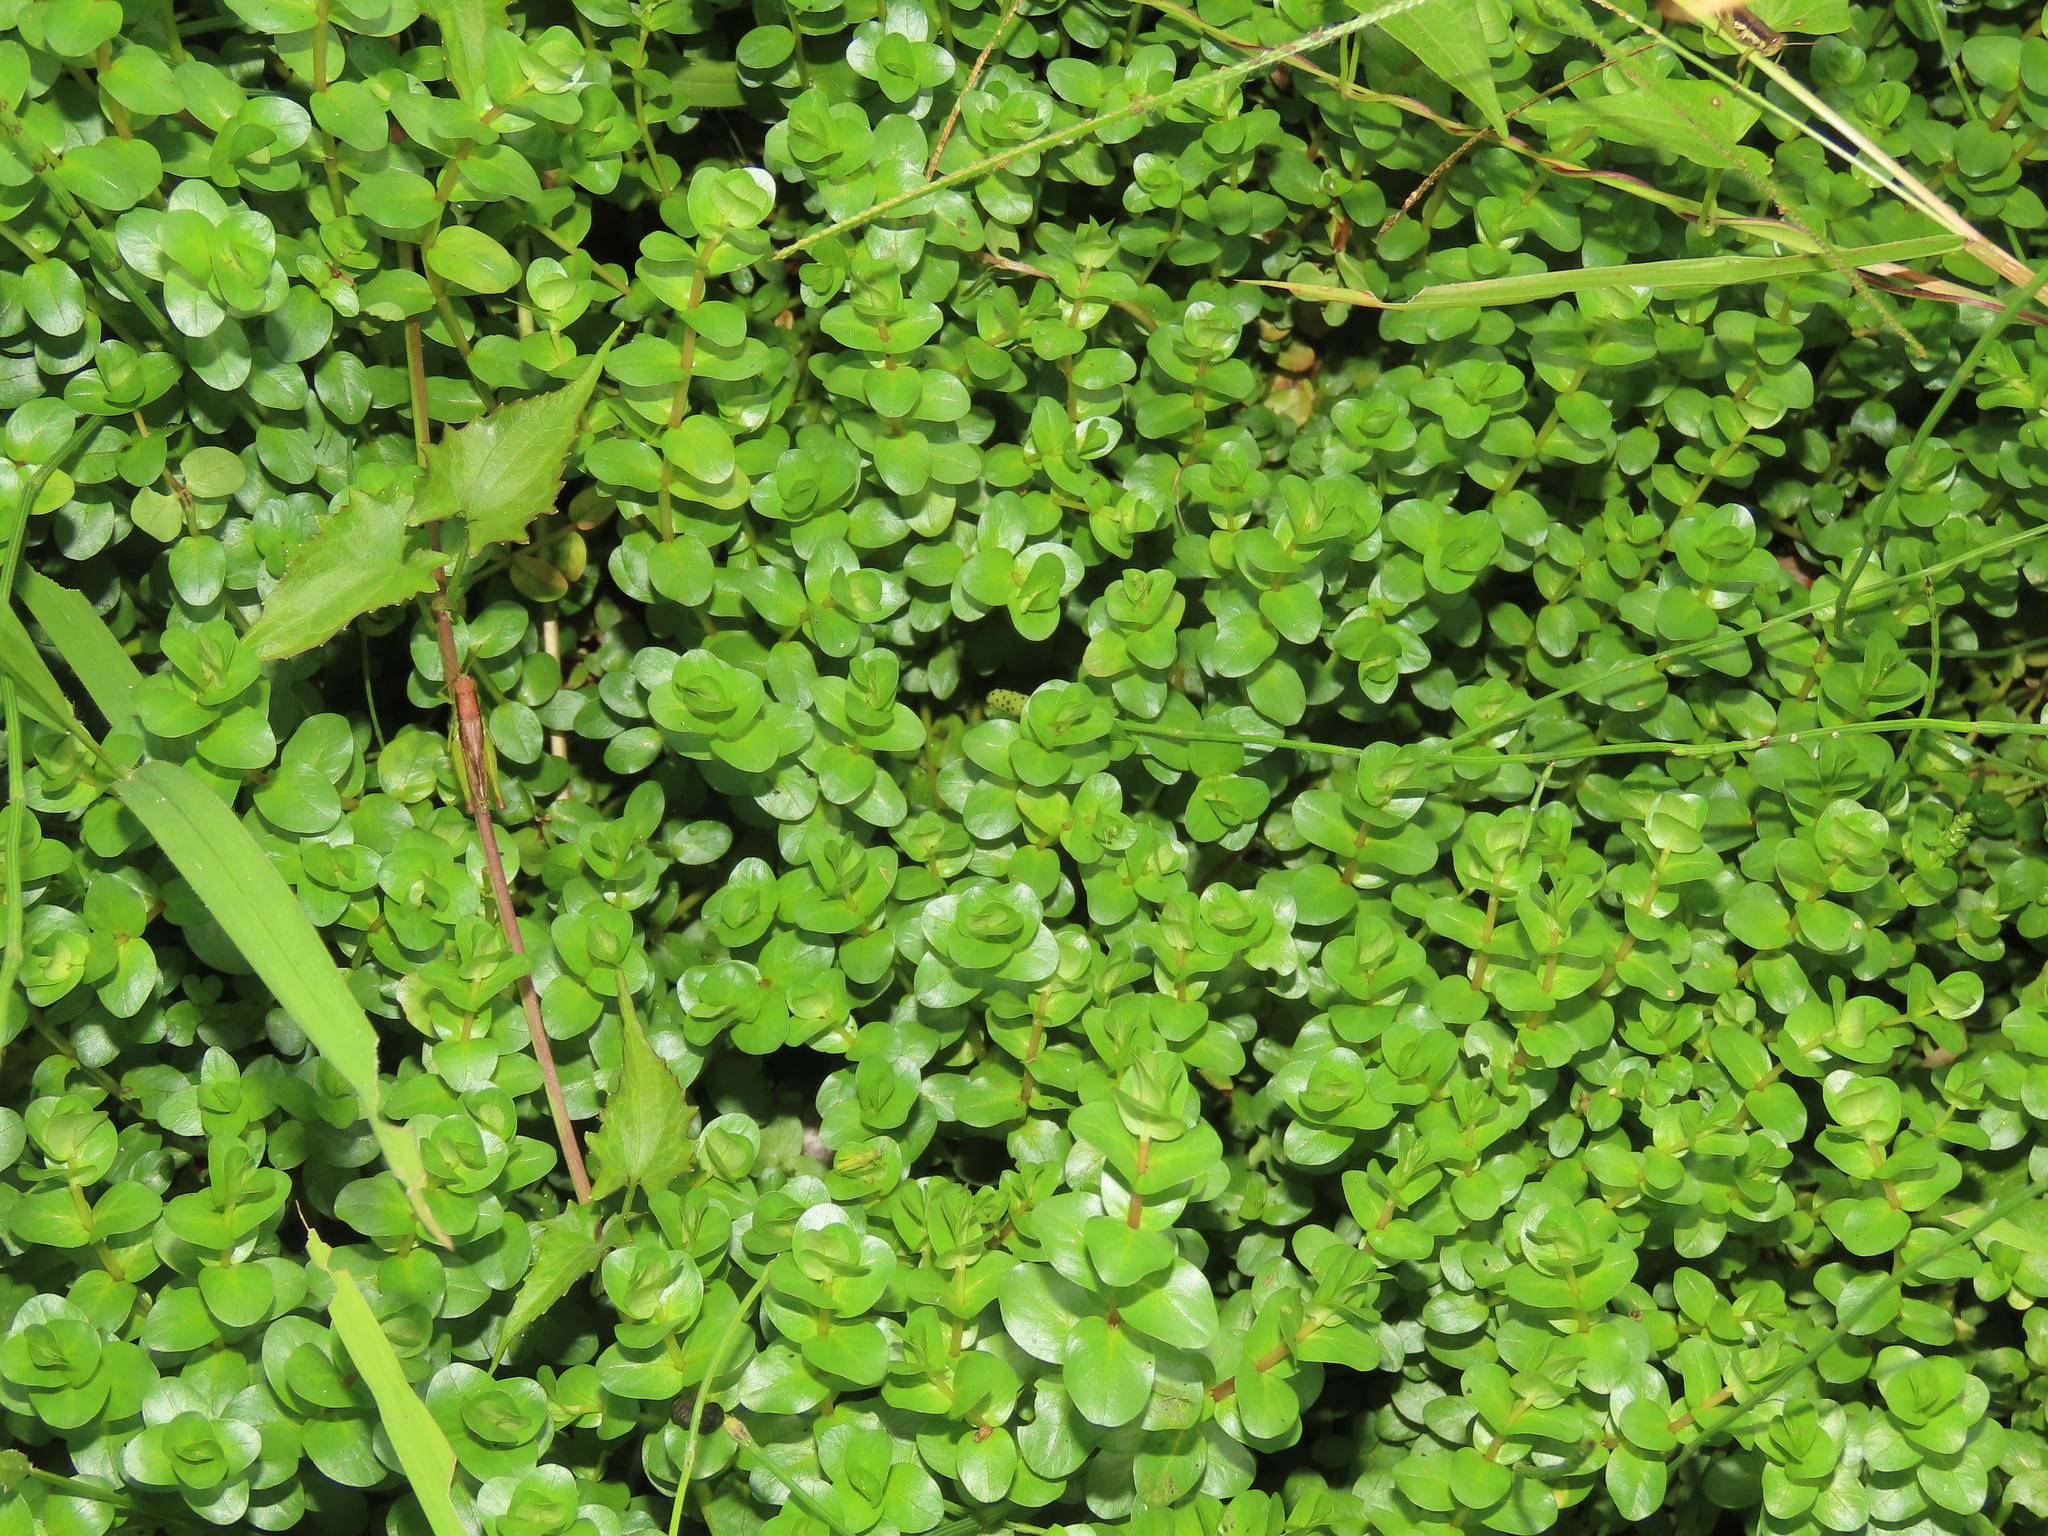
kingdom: Plantae
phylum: Tracheophyta
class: Magnoliopsida
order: Myrtales
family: Lythraceae
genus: Rotala
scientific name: Rotala rotundifolia
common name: Roundleaf toothcup
